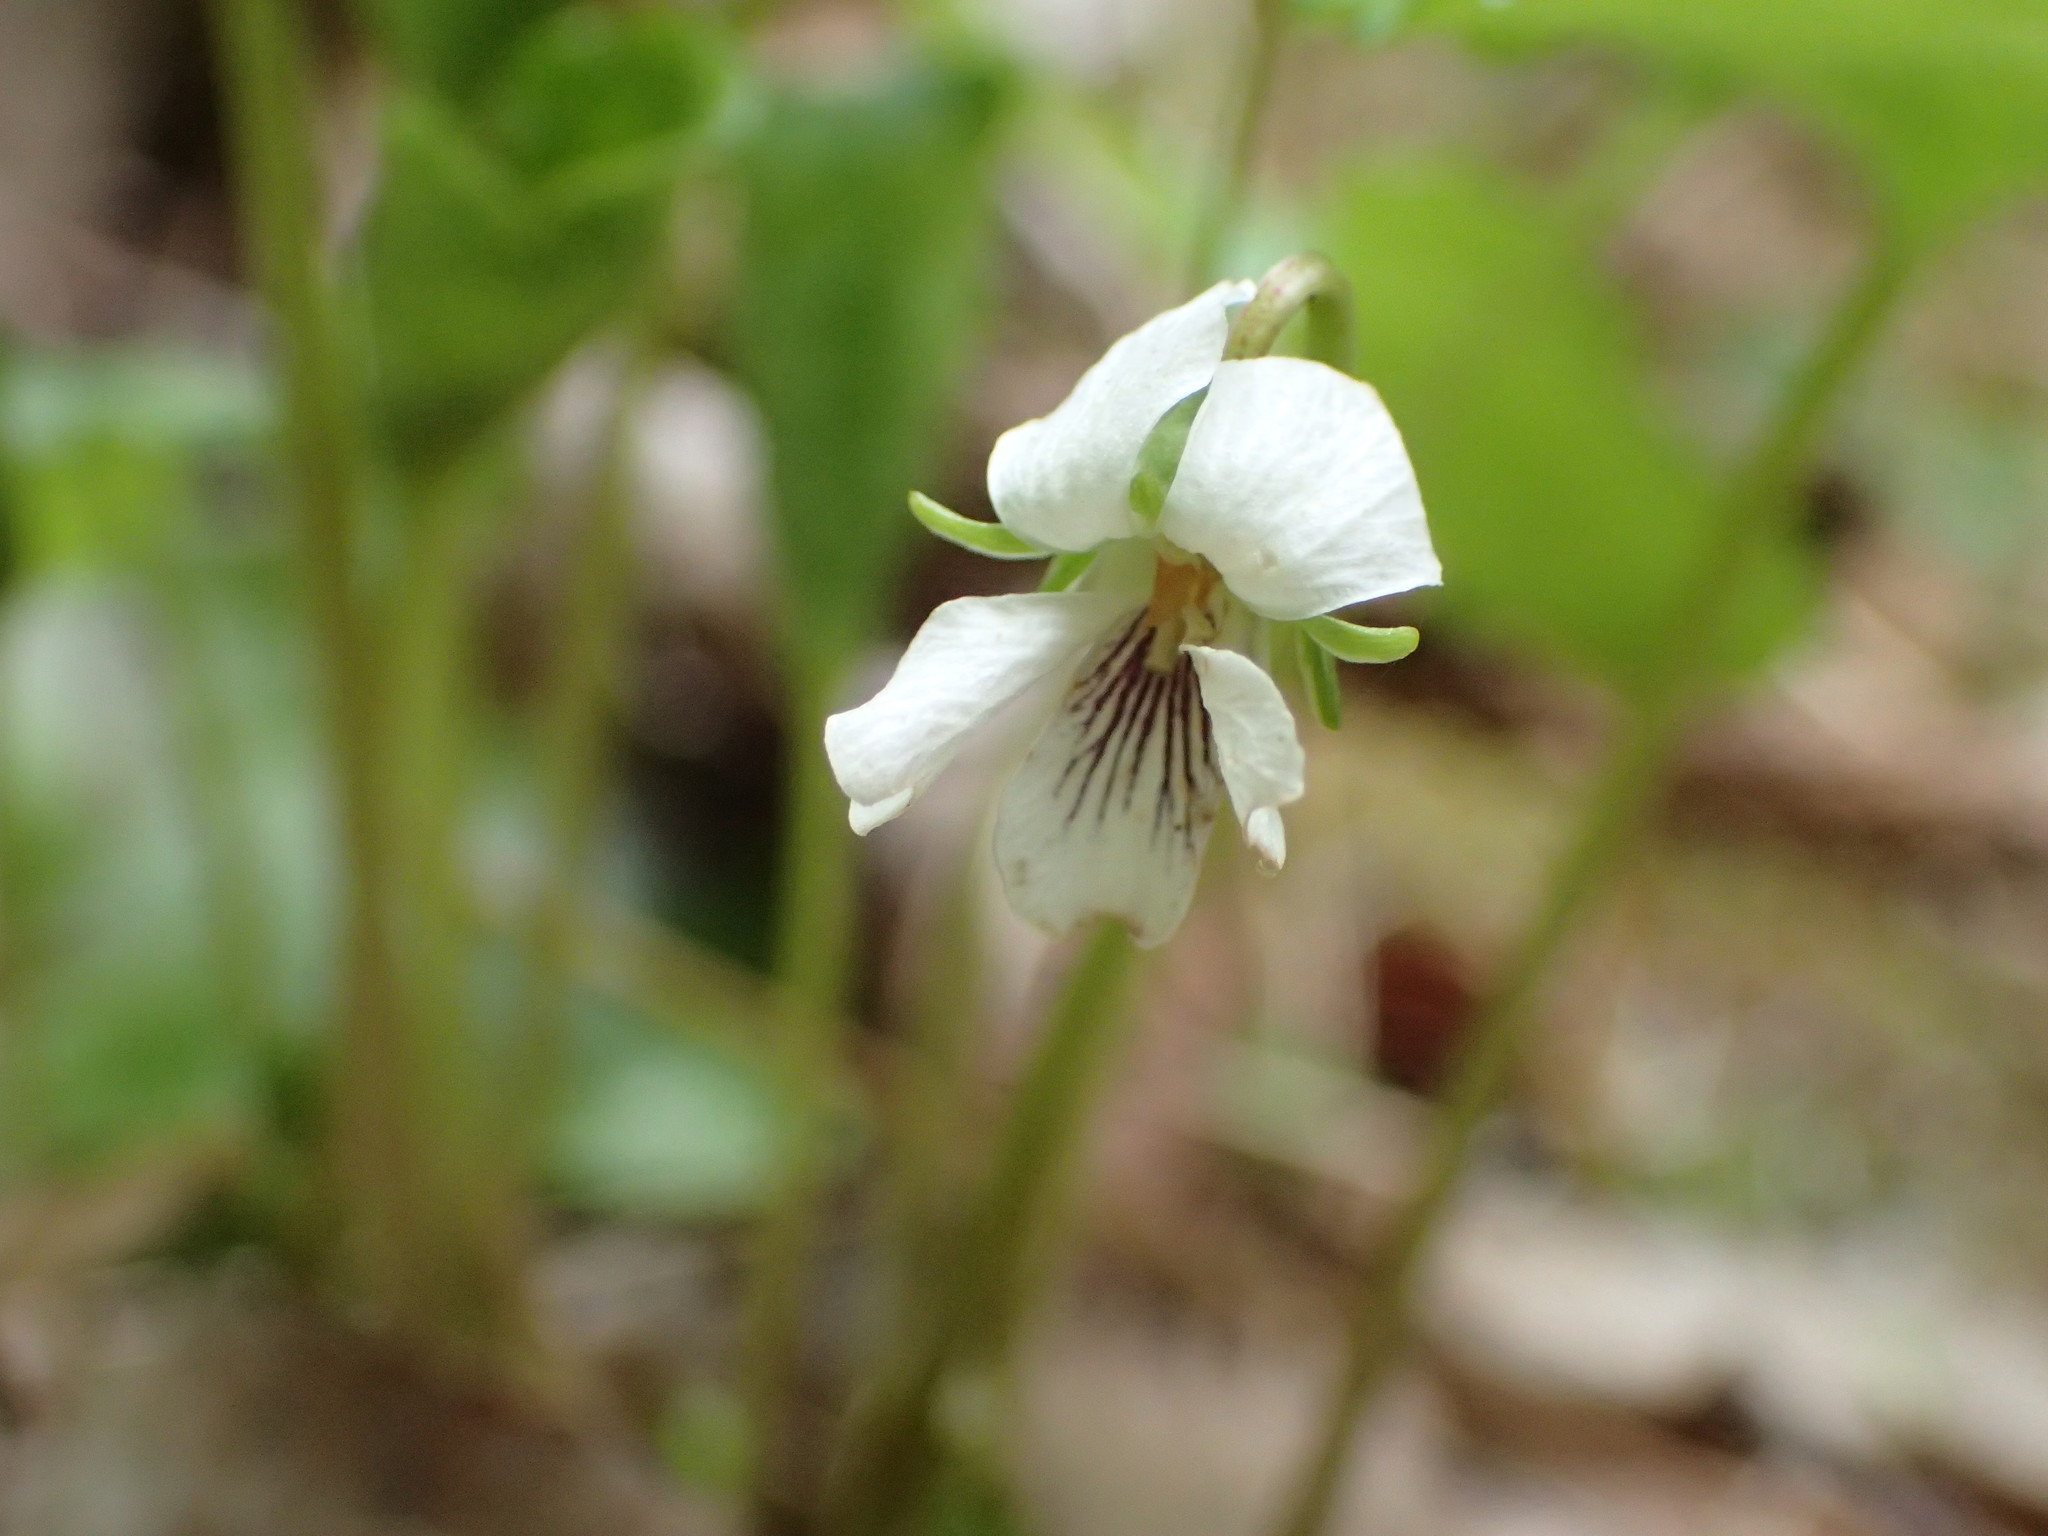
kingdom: Plantae
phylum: Tracheophyta
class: Magnoliopsida
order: Malpighiales
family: Violaceae
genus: Viola
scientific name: Viola renifolia
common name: Kidney-leaf violet
